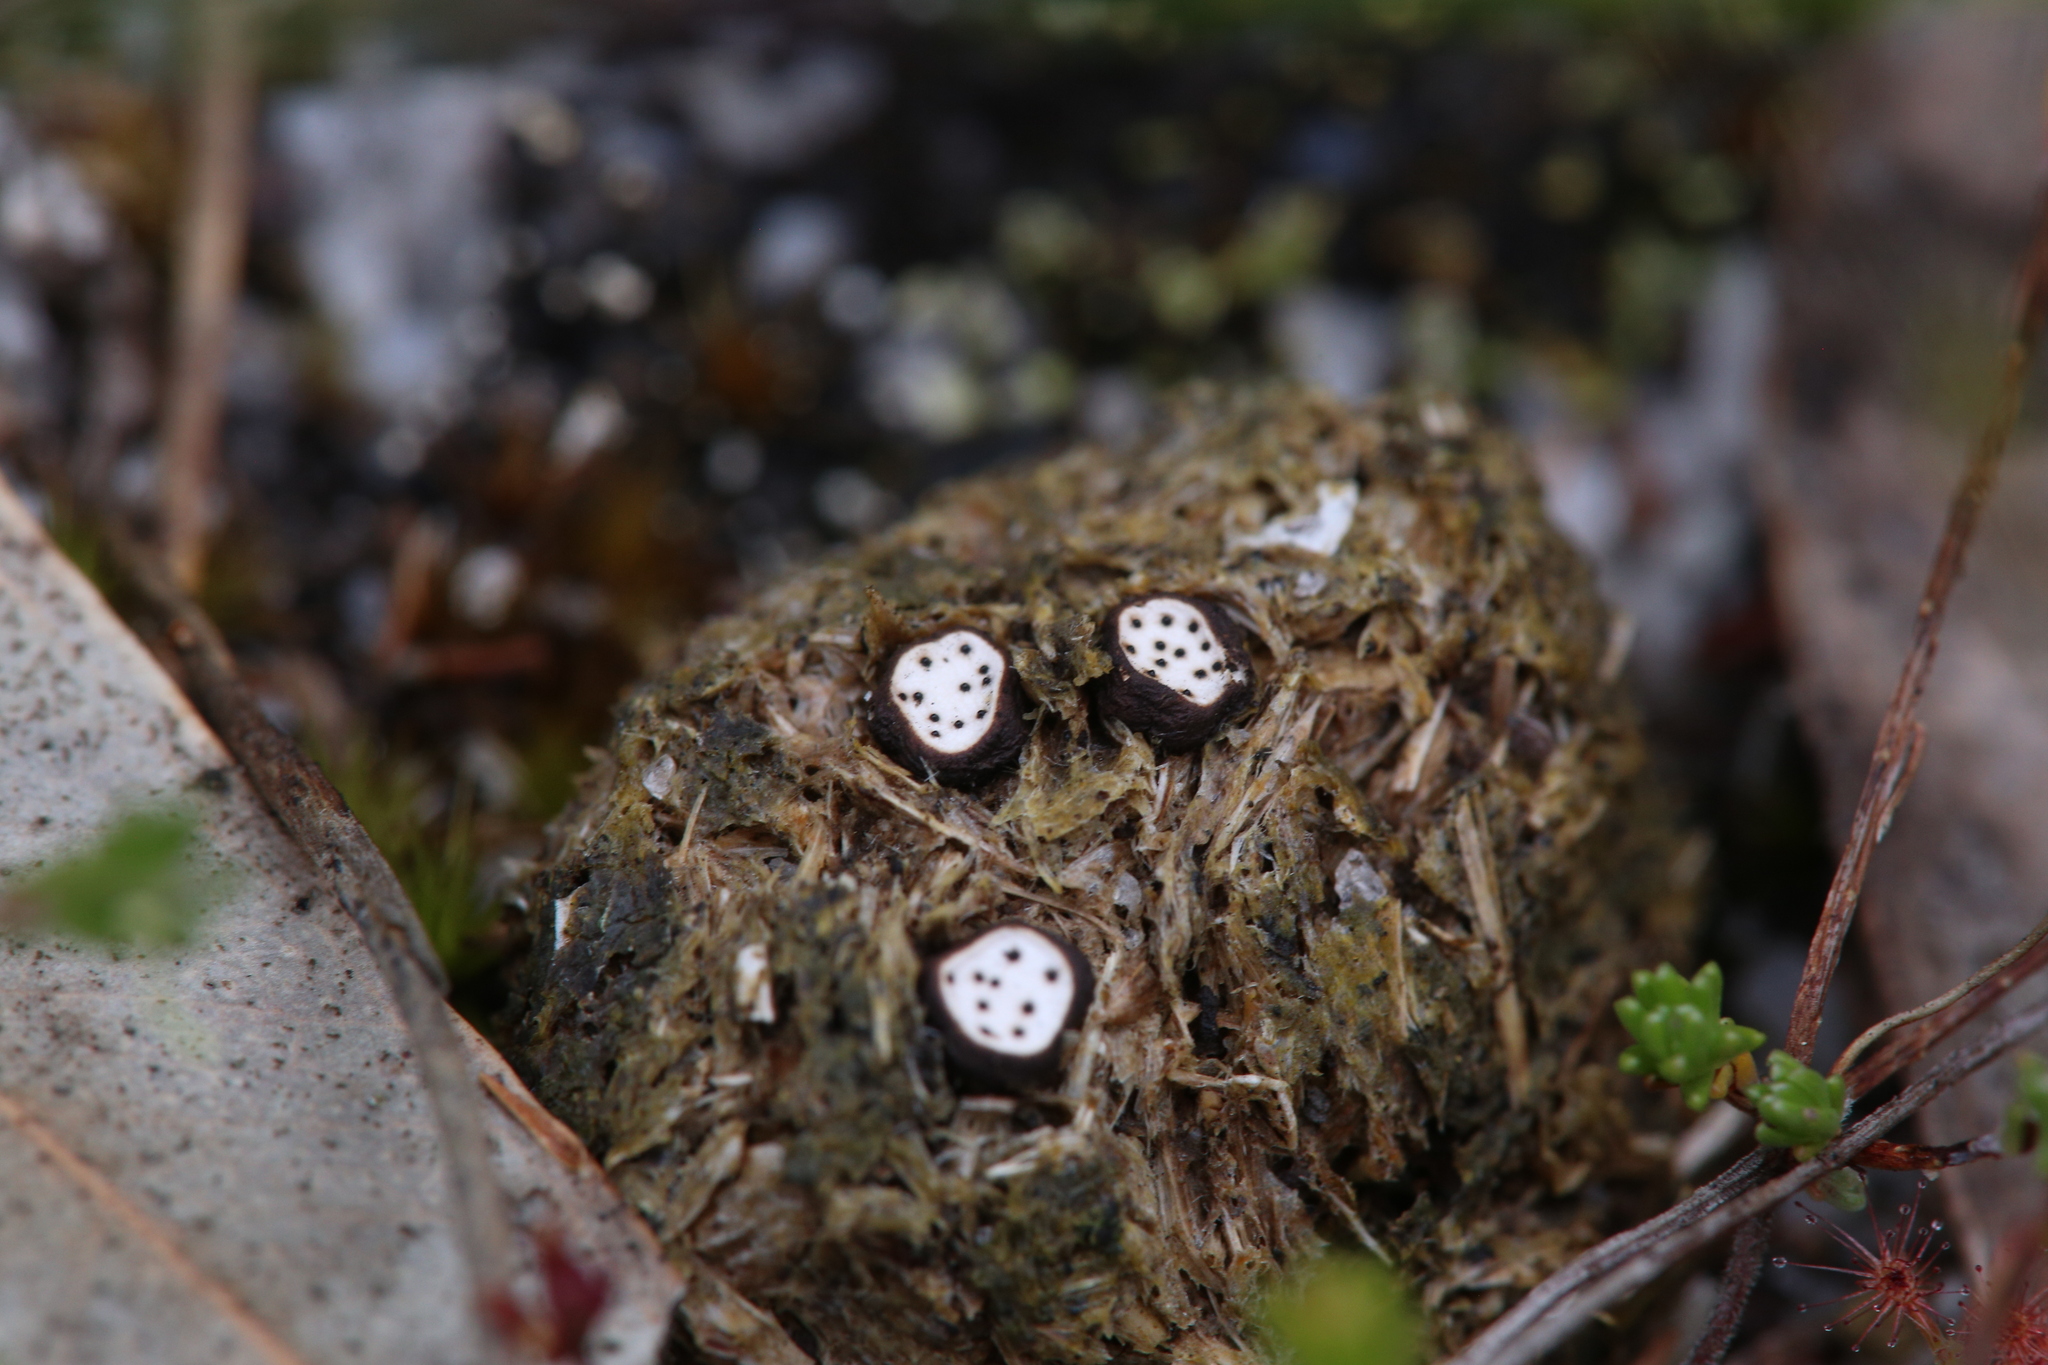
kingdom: Fungi
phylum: Ascomycota
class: Sordariomycetes
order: Xylariales
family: Xylariaceae
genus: Poronia
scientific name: Poronia erici
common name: Dung button
